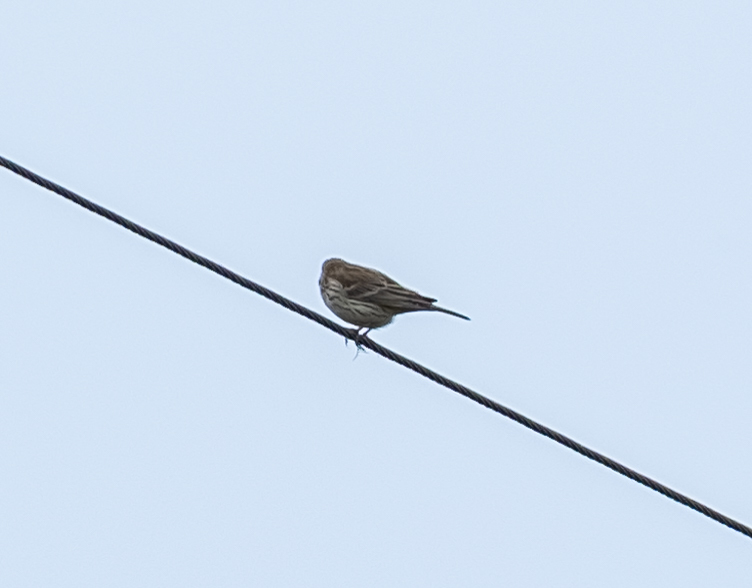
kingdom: Animalia
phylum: Chordata
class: Aves
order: Passeriformes
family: Motacillidae
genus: Anthus
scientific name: Anthus pratensis
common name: Meadow pipit
